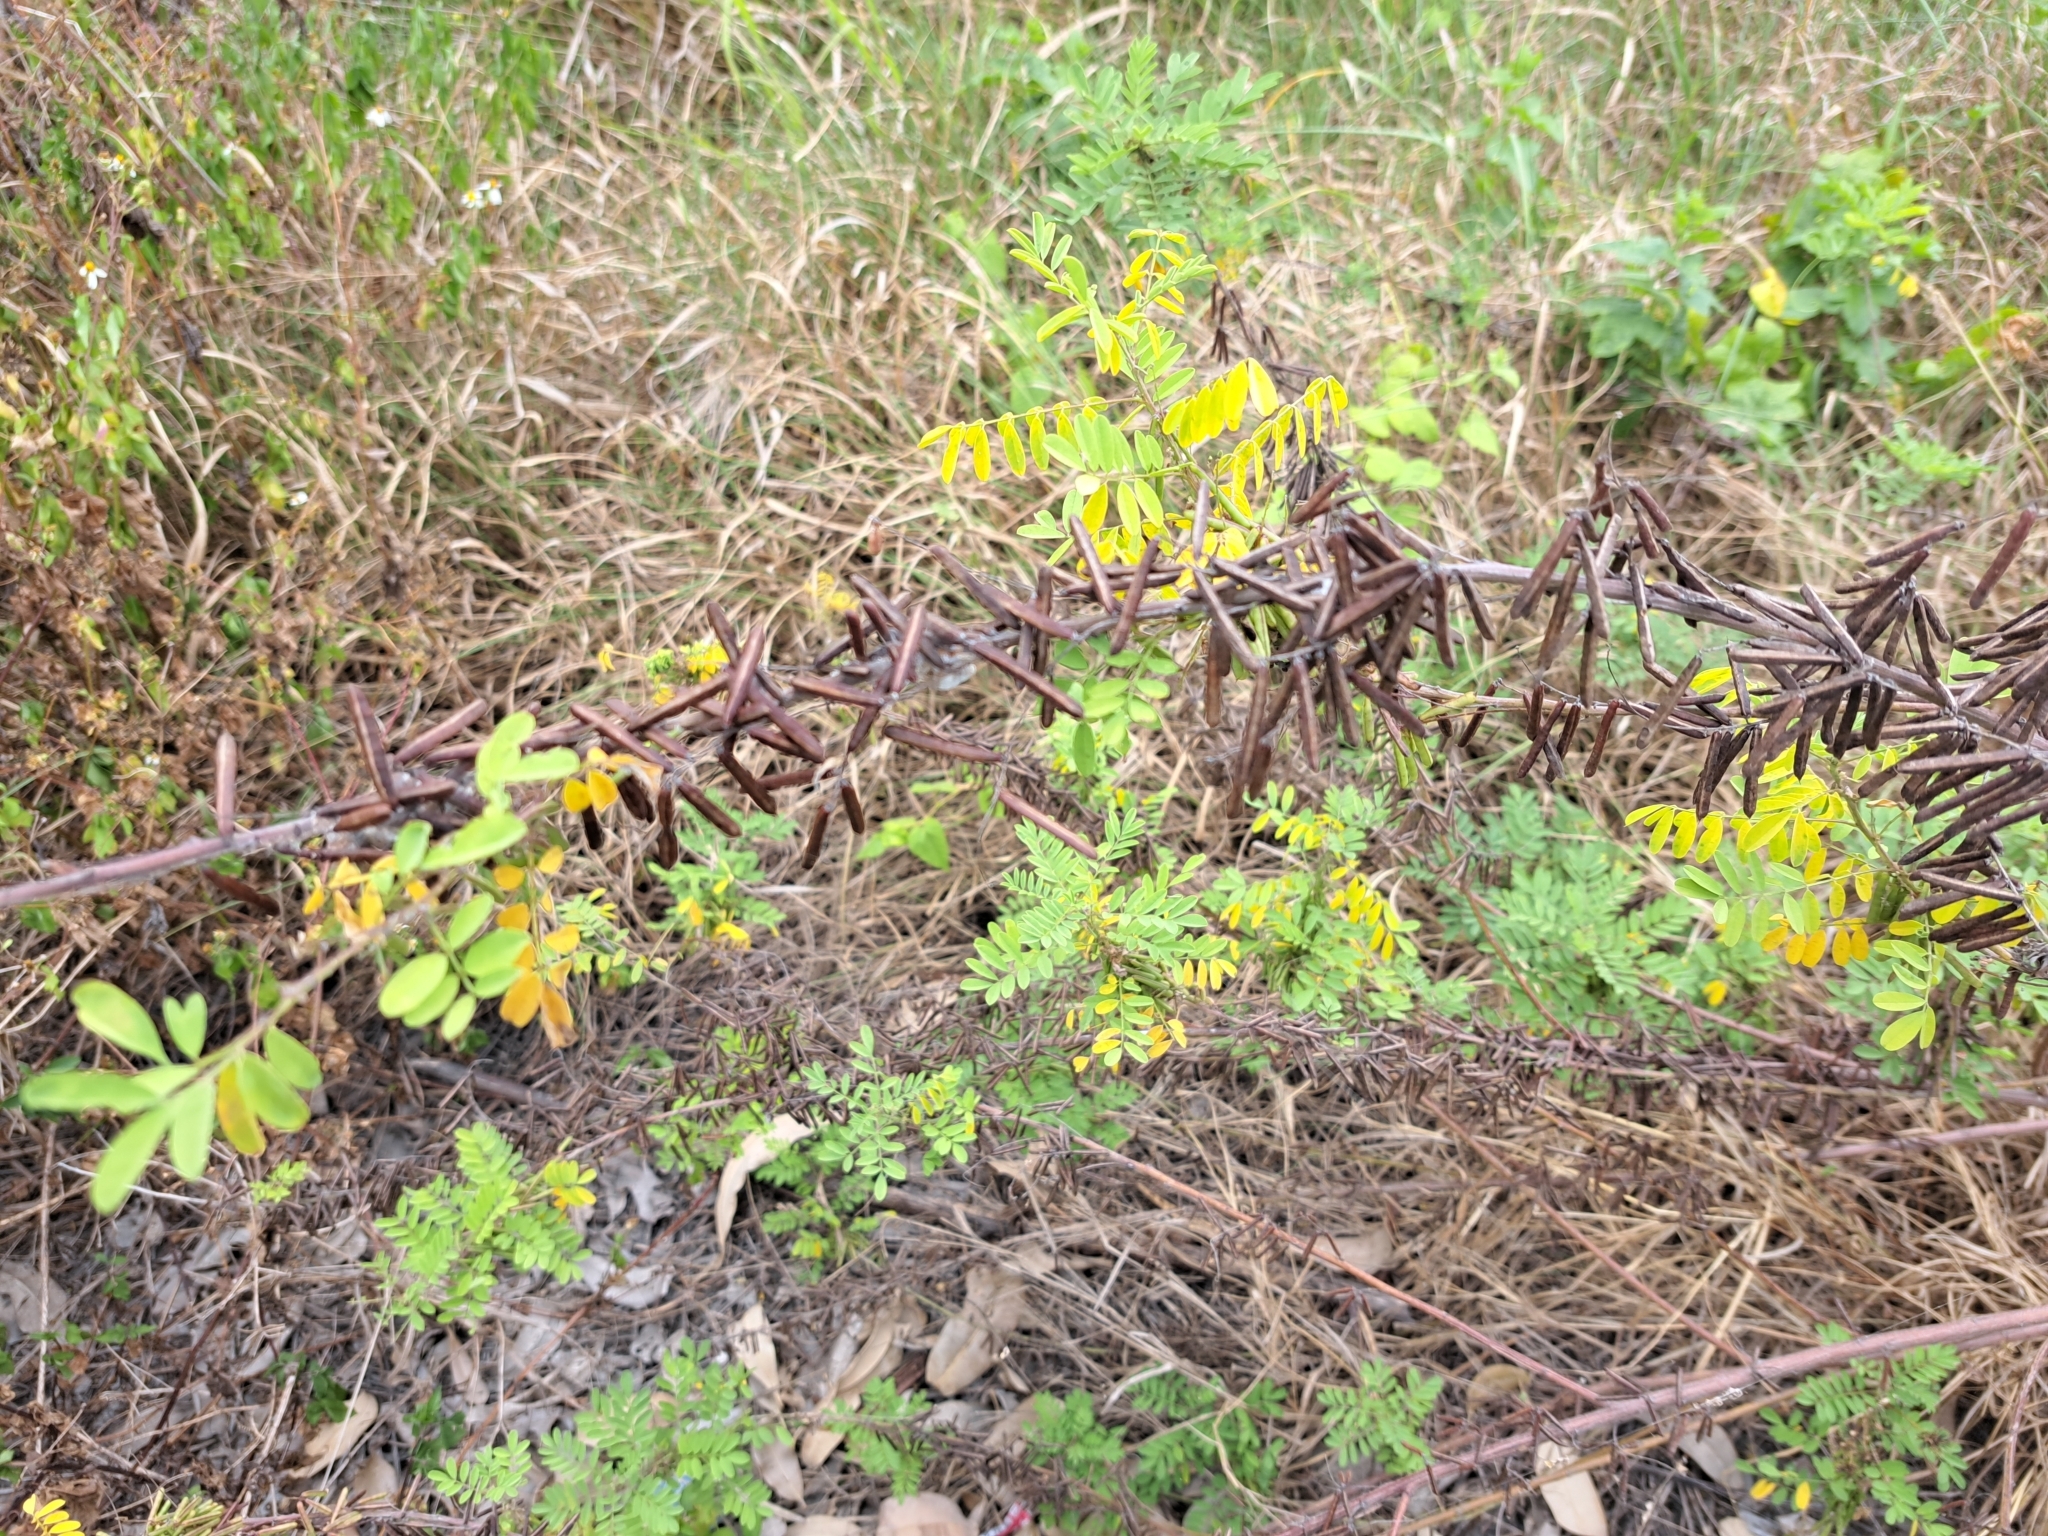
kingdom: Plantae
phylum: Tracheophyta
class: Magnoliopsida
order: Fabales
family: Fabaceae
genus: Indigofera
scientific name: Indigofera tinctoria
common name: True indigo
